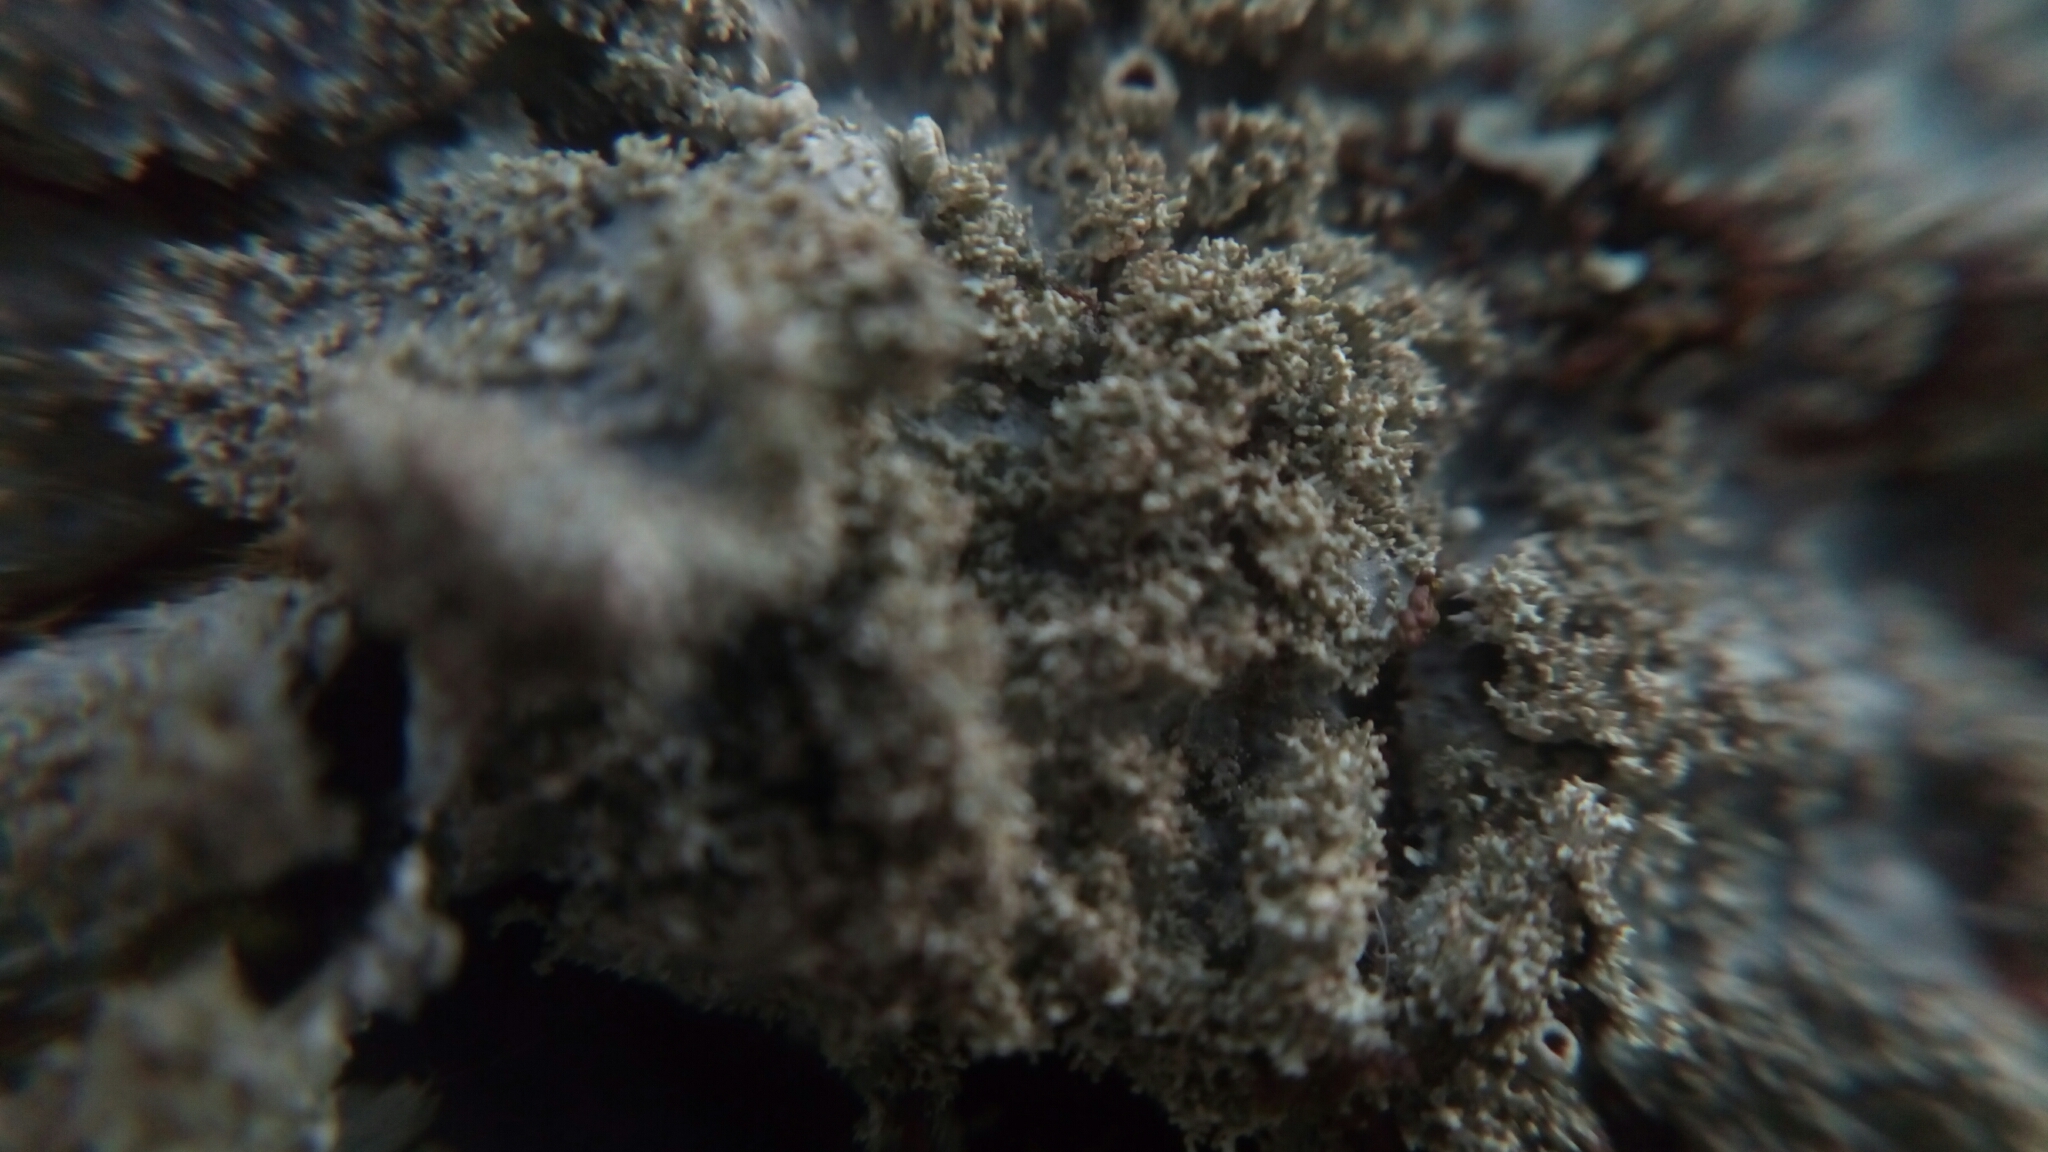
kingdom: Fungi
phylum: Ascomycota
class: Lecanoromycetes
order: Lecanorales
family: Parmeliaceae
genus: Punctelia
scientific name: Punctelia rudecta
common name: Rough speckled shield lichen
